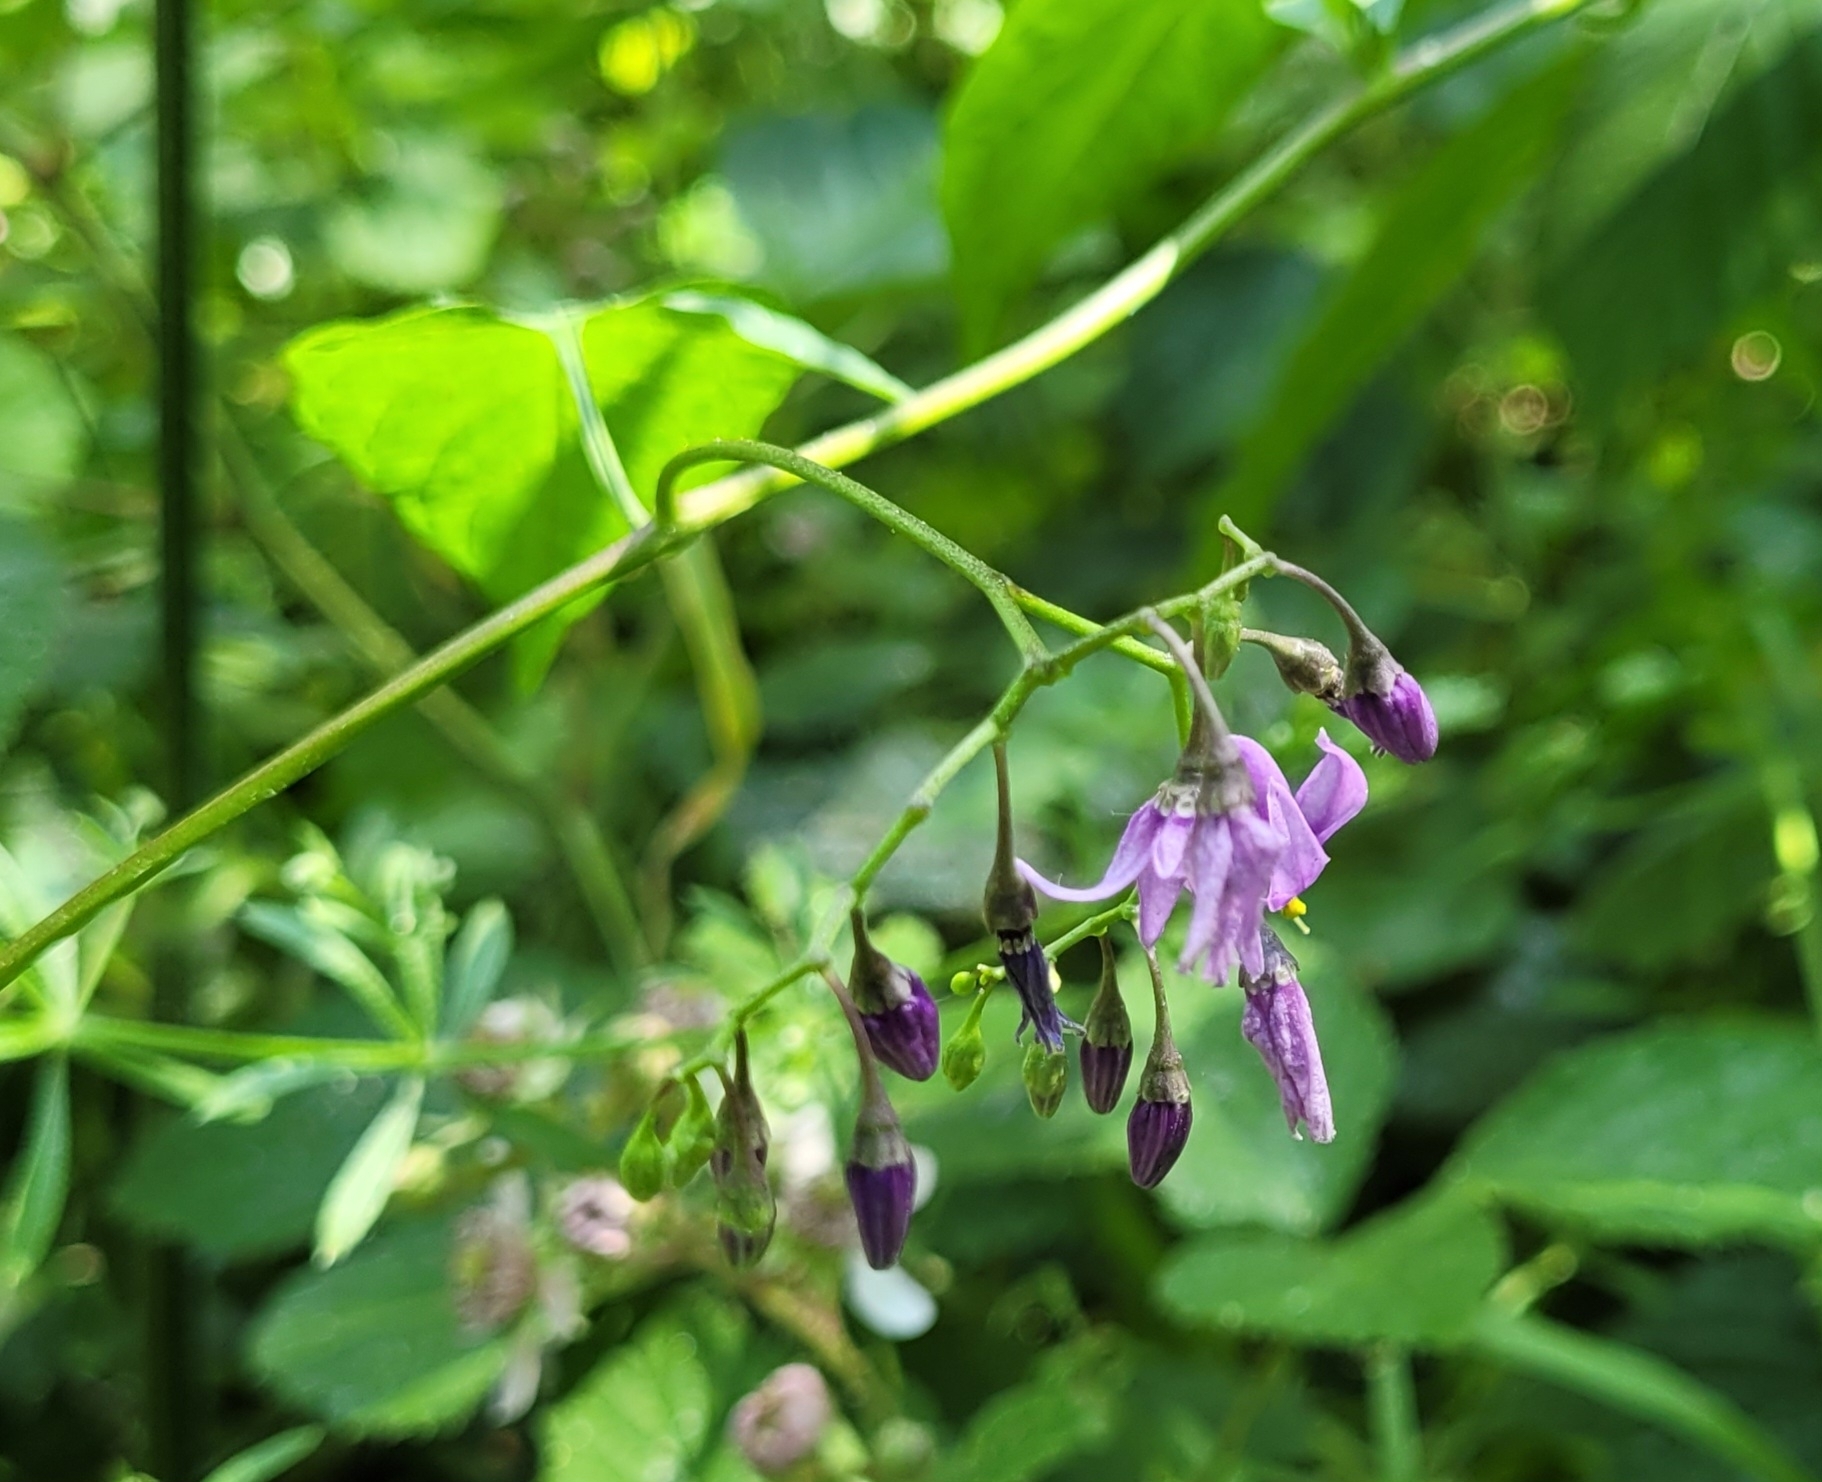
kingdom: Plantae
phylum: Tracheophyta
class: Magnoliopsida
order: Solanales
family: Solanaceae
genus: Solanum
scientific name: Solanum dulcamara
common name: Climbing nightshade
